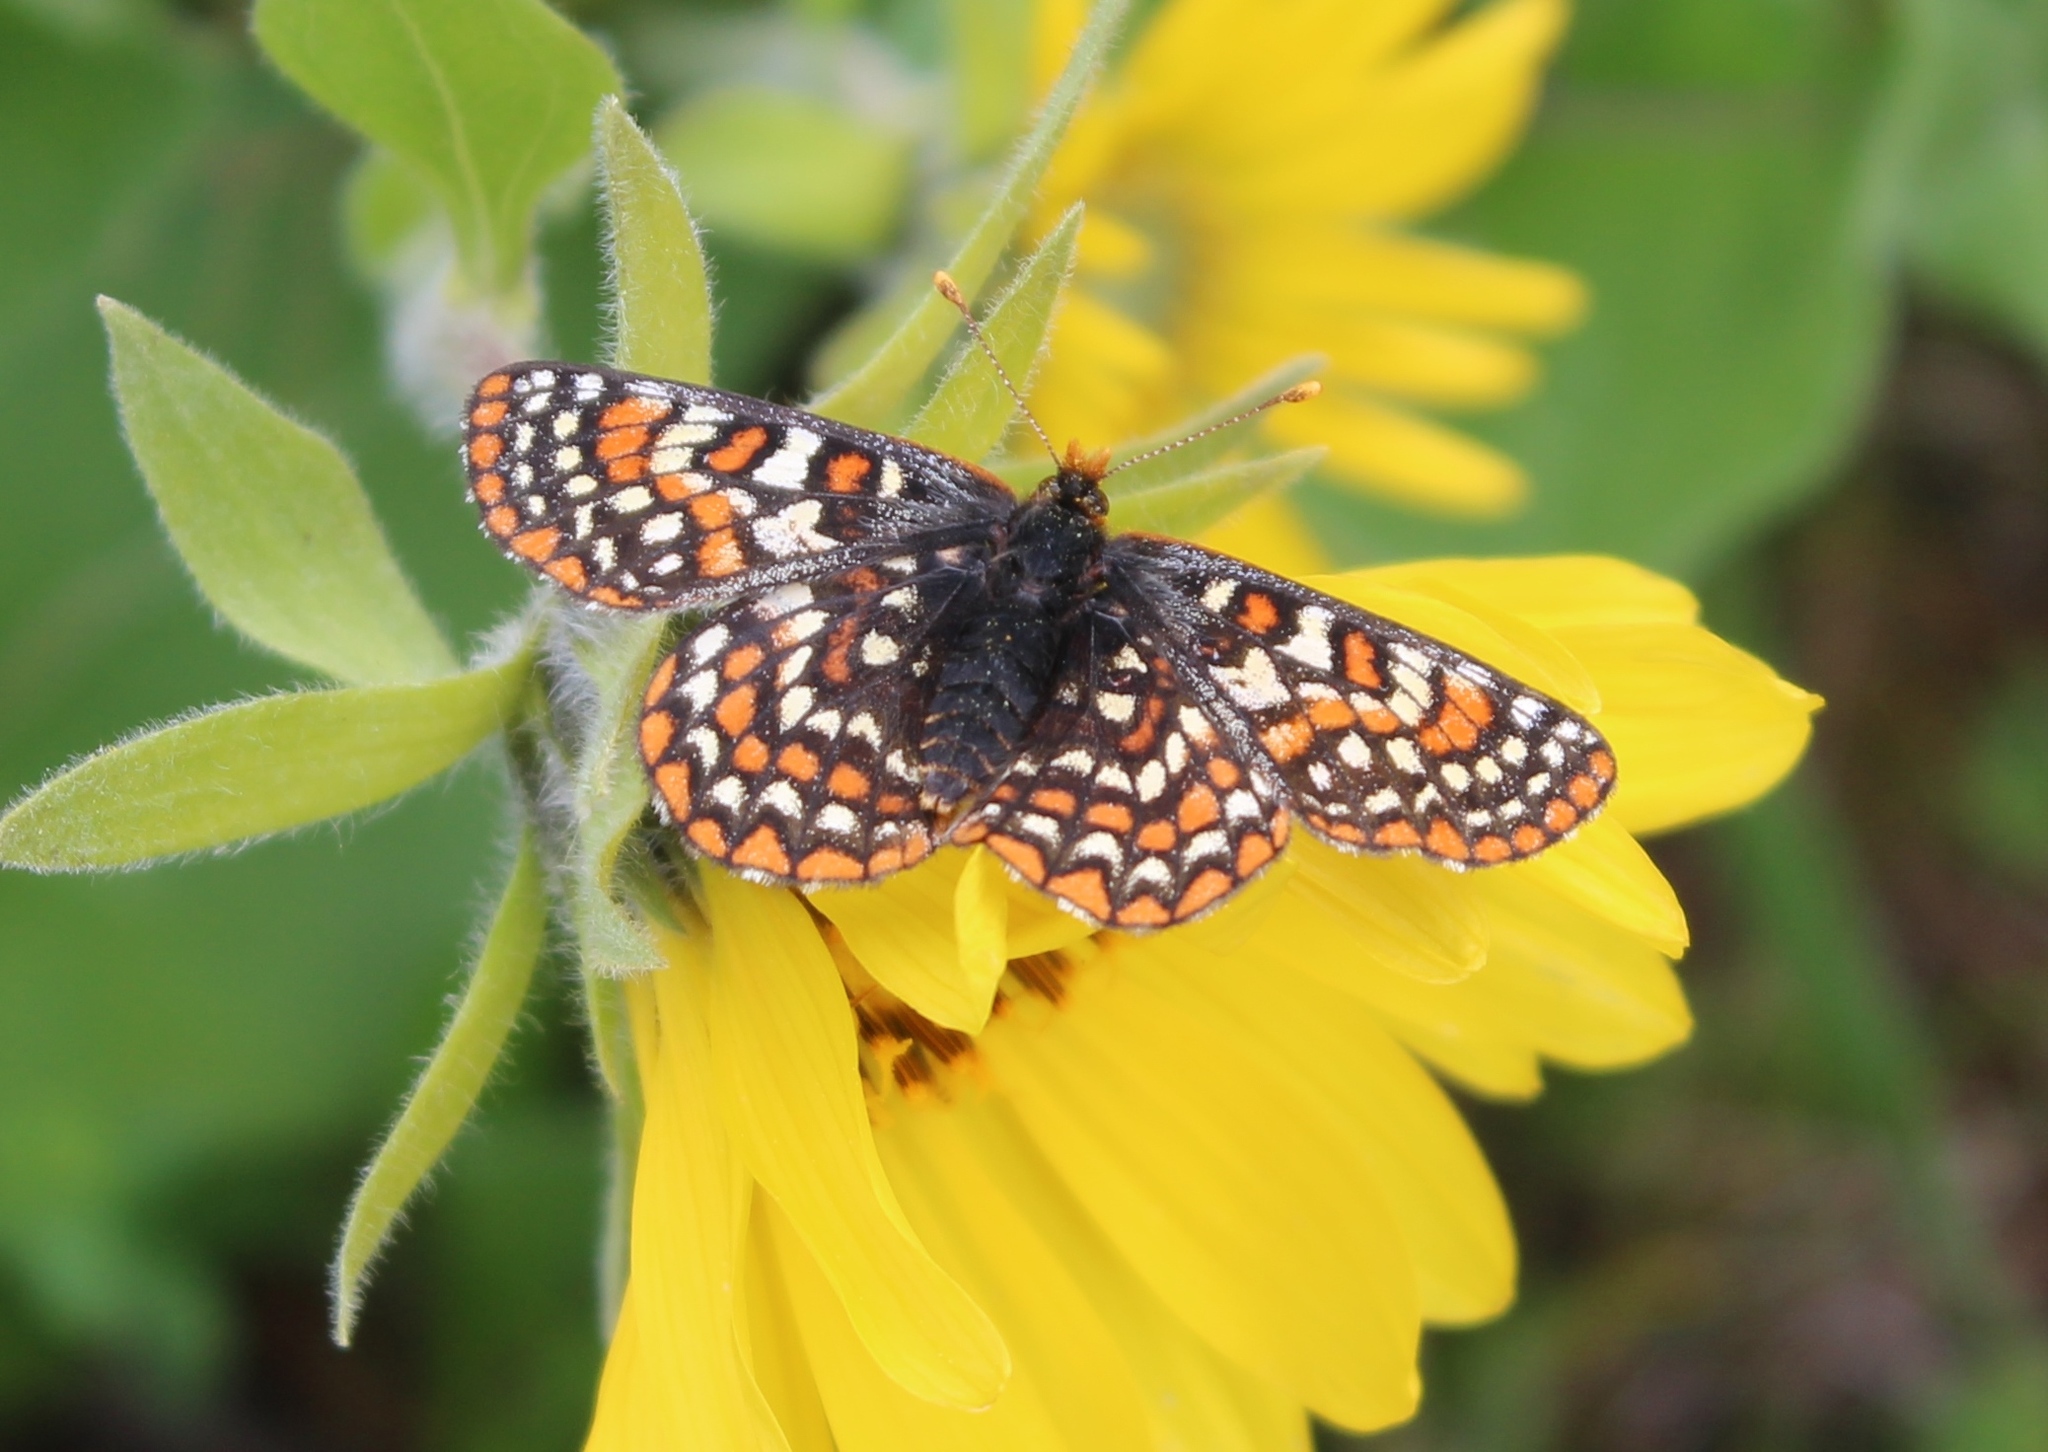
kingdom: Animalia
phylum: Arthropoda
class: Insecta
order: Lepidoptera
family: Nymphalidae
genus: Occidryas
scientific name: Occidryas editha
